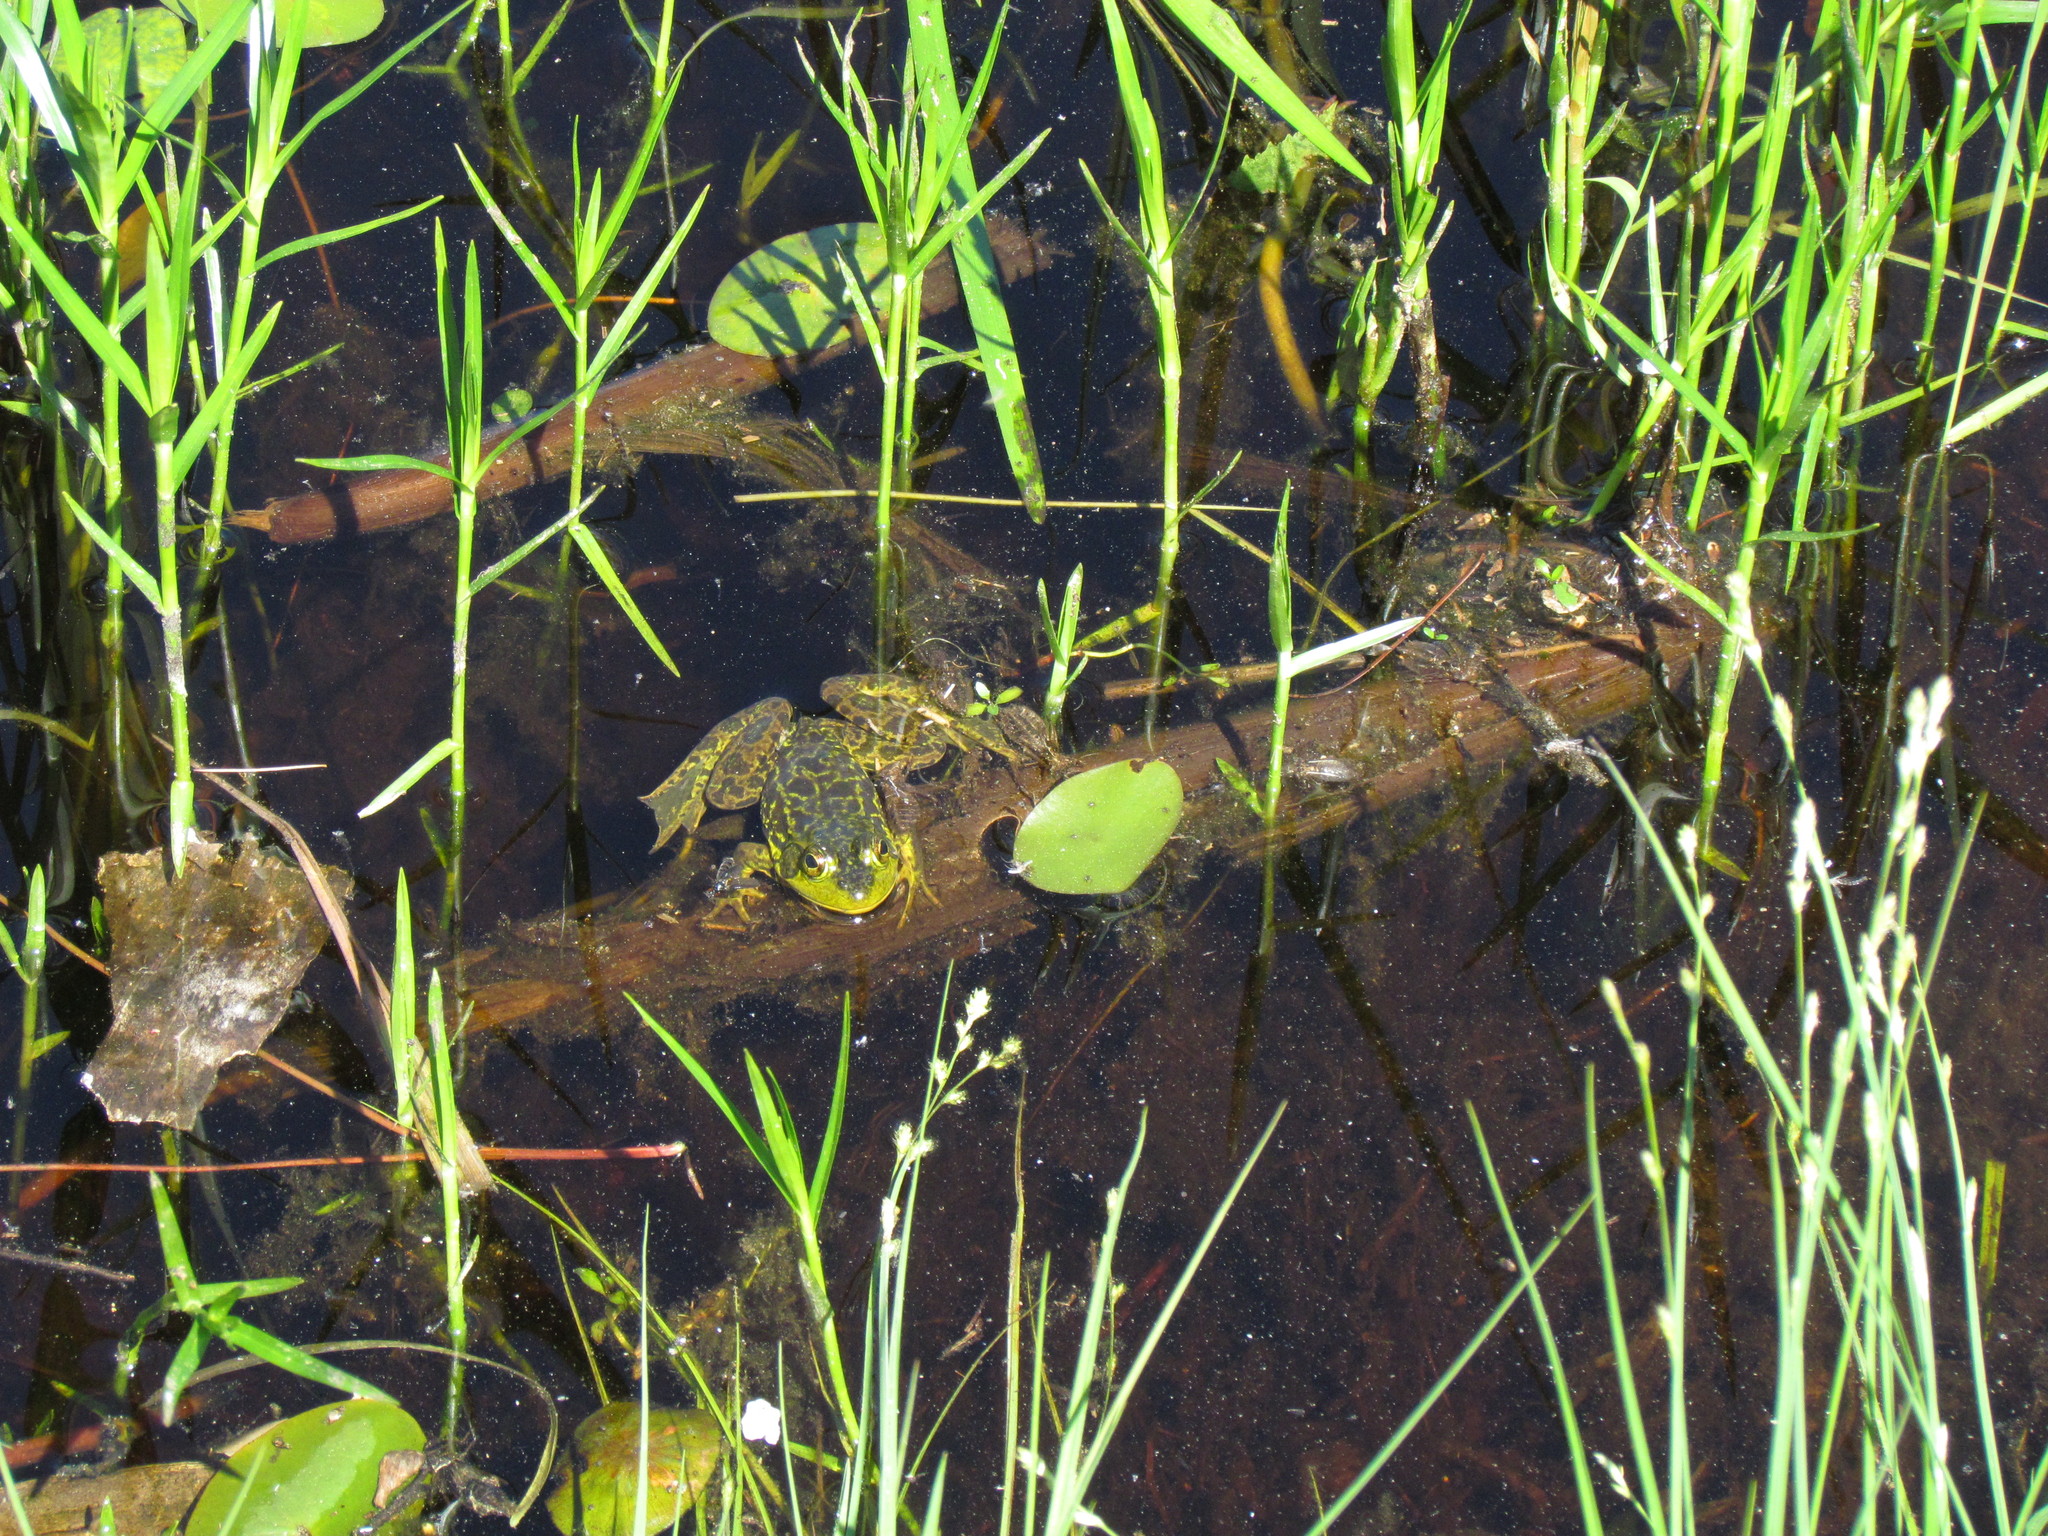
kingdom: Animalia
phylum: Chordata
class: Amphibia
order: Anura
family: Ranidae
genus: Lithobates
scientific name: Lithobates septentrionalis
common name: Mink frog
